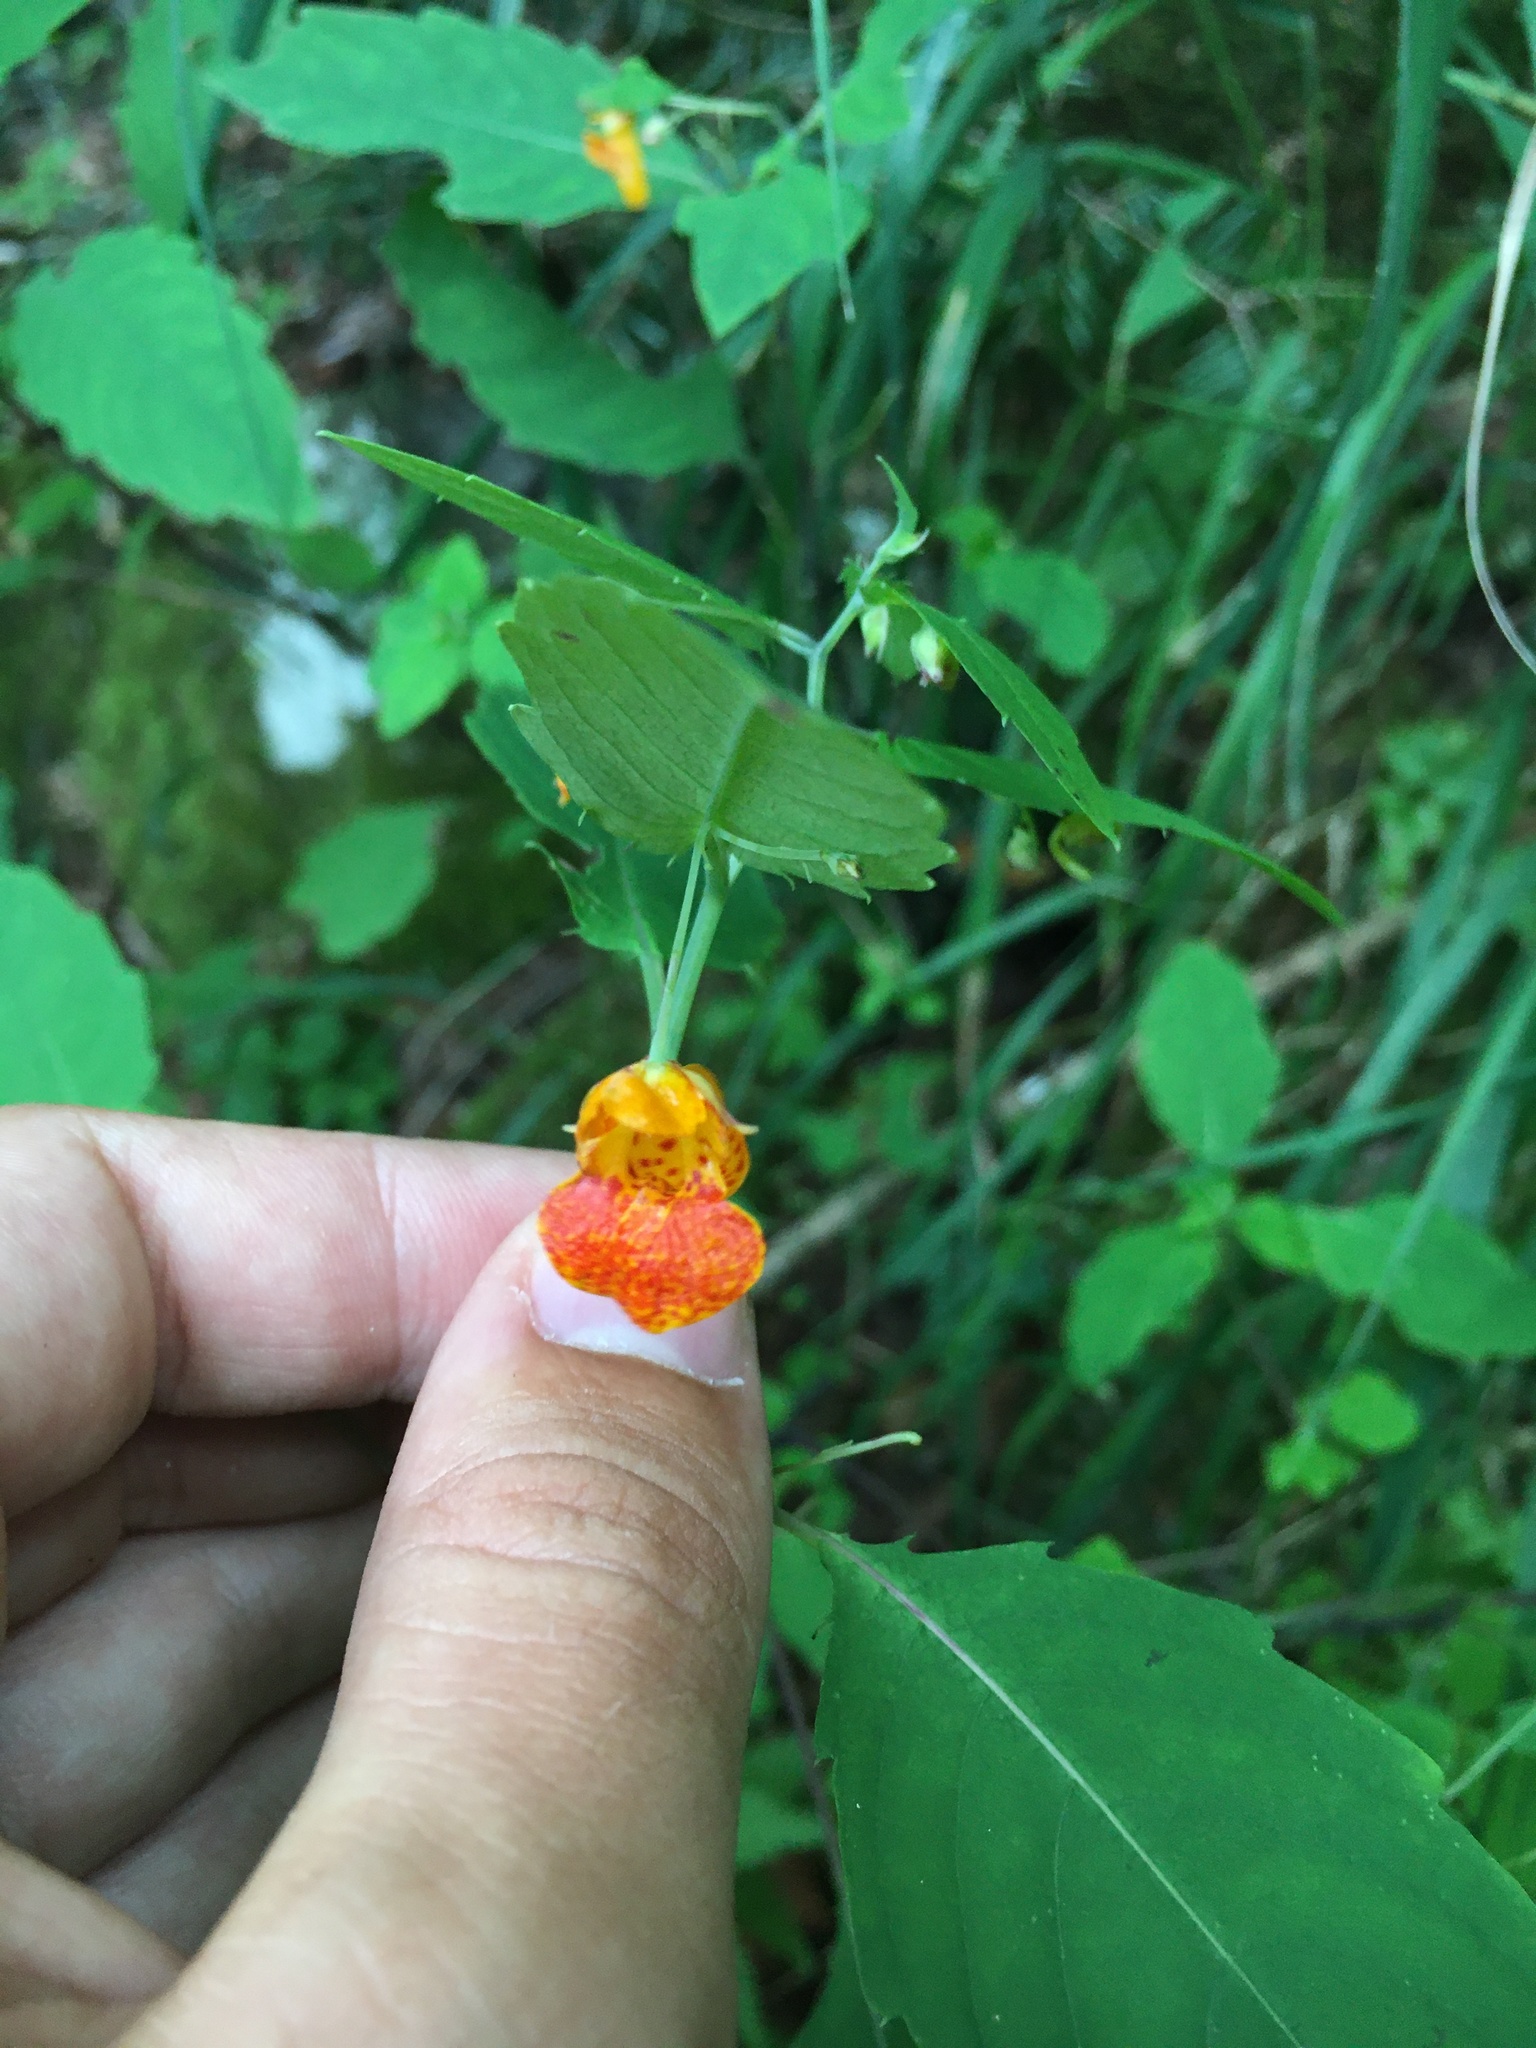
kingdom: Plantae
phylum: Tracheophyta
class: Magnoliopsida
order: Ericales
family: Balsaminaceae
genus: Impatiens
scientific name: Impatiens capensis
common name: Orange balsam
